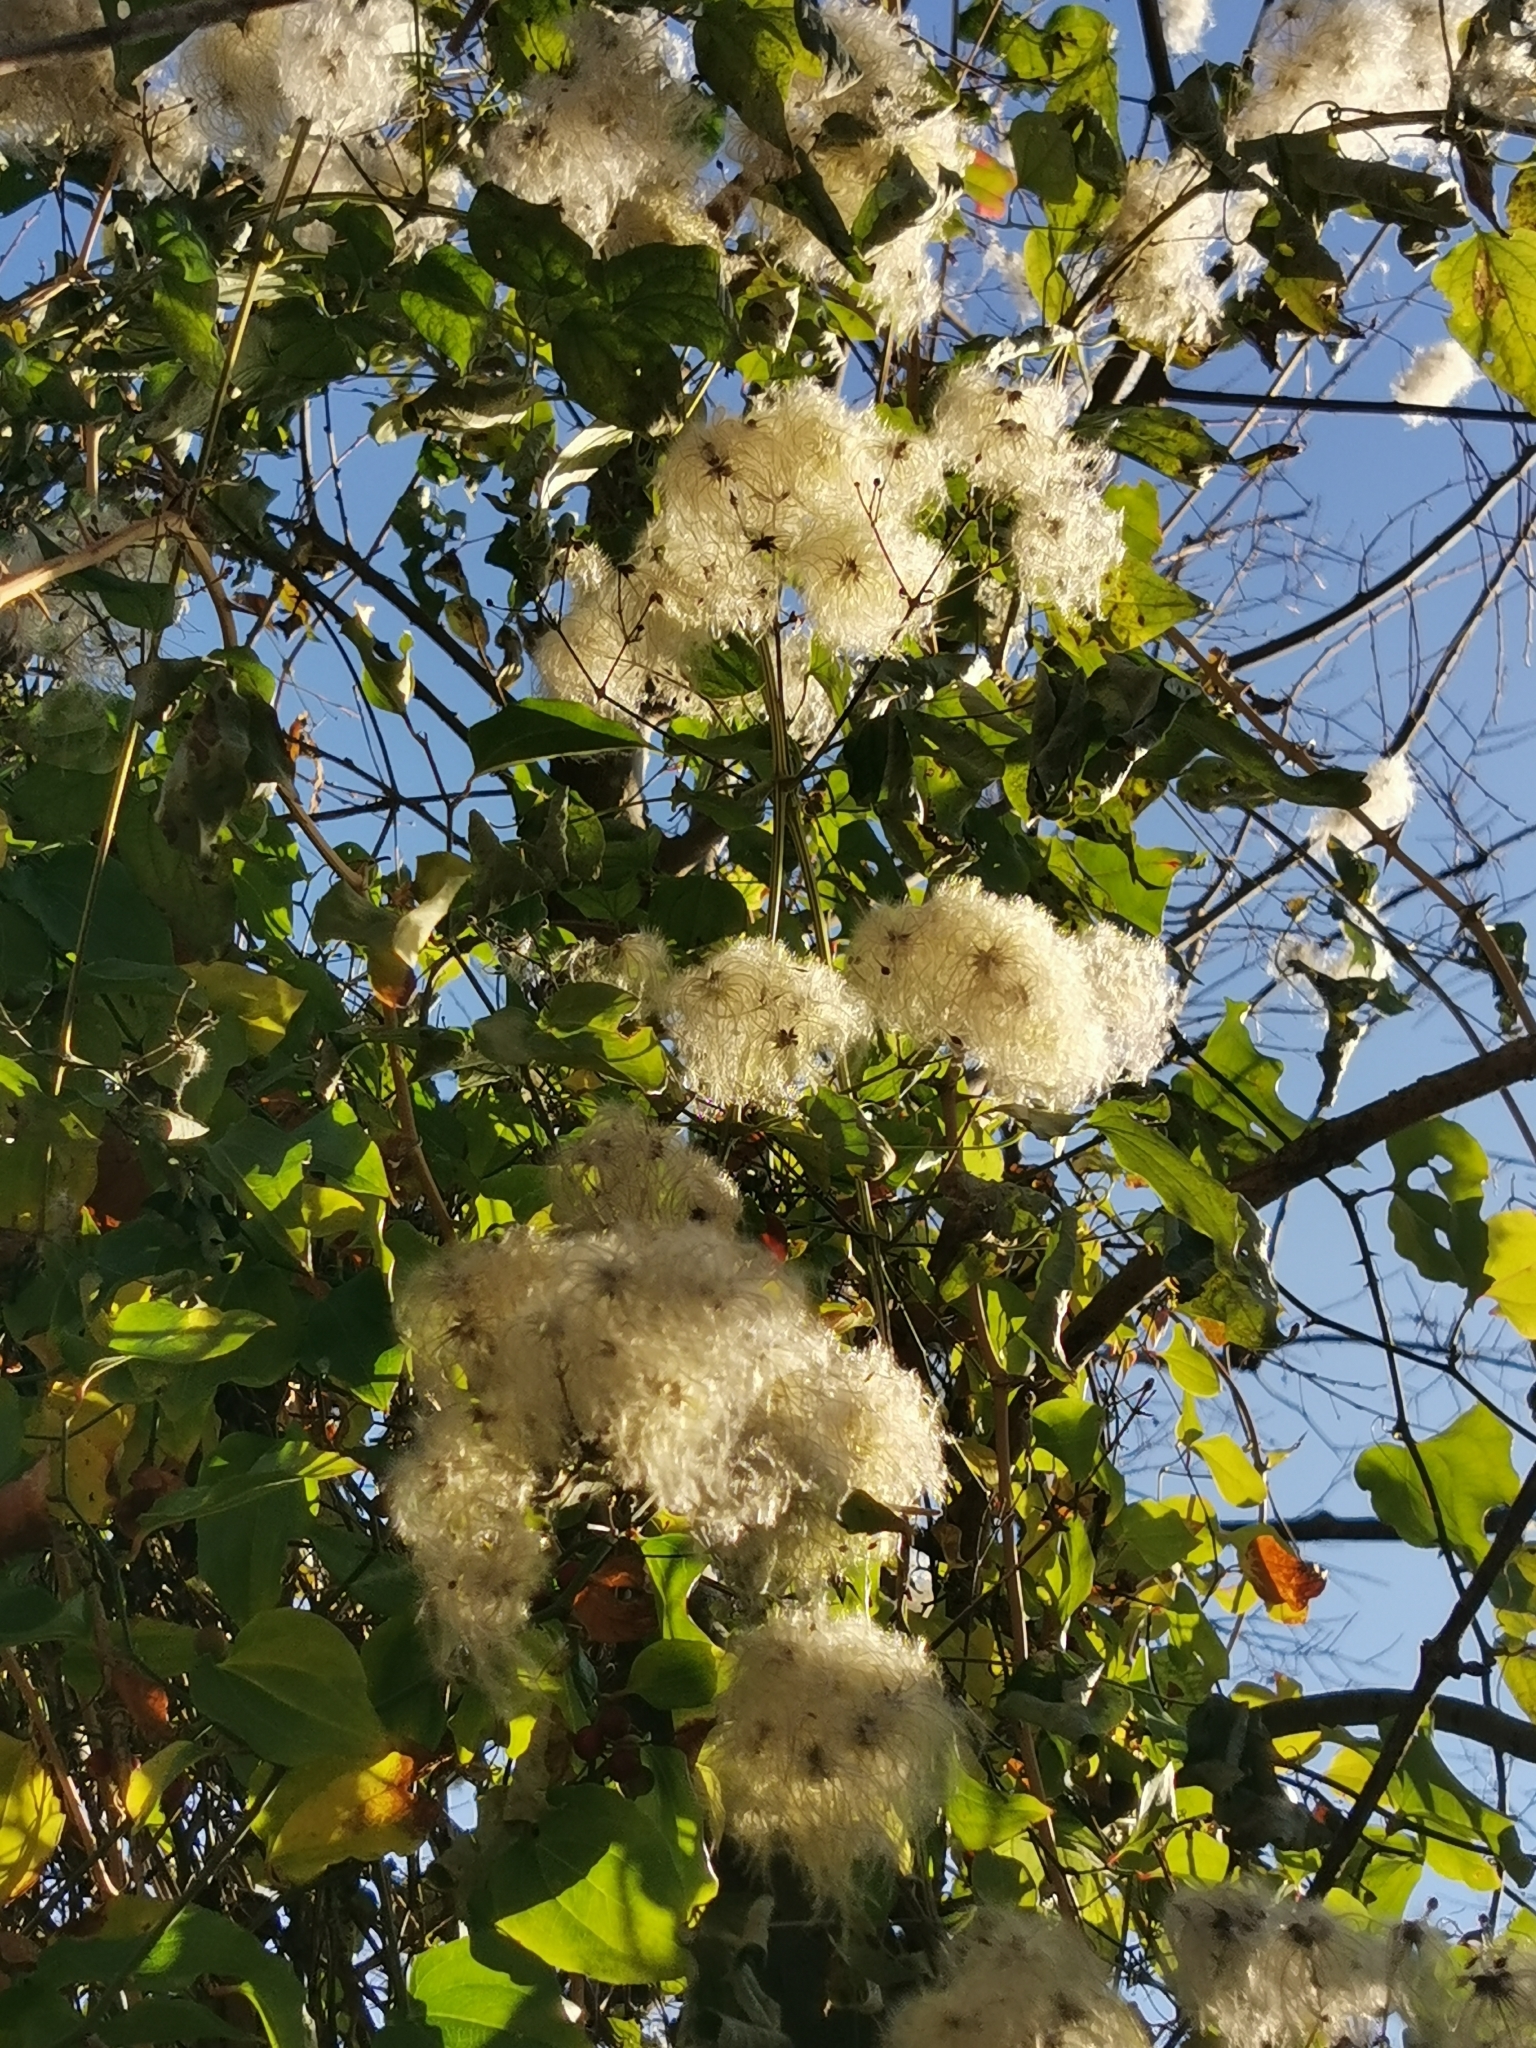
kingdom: Plantae
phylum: Tracheophyta
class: Magnoliopsida
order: Ranunculales
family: Ranunculaceae
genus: Clematis
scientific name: Clematis vitalba
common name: Evergreen clematis
